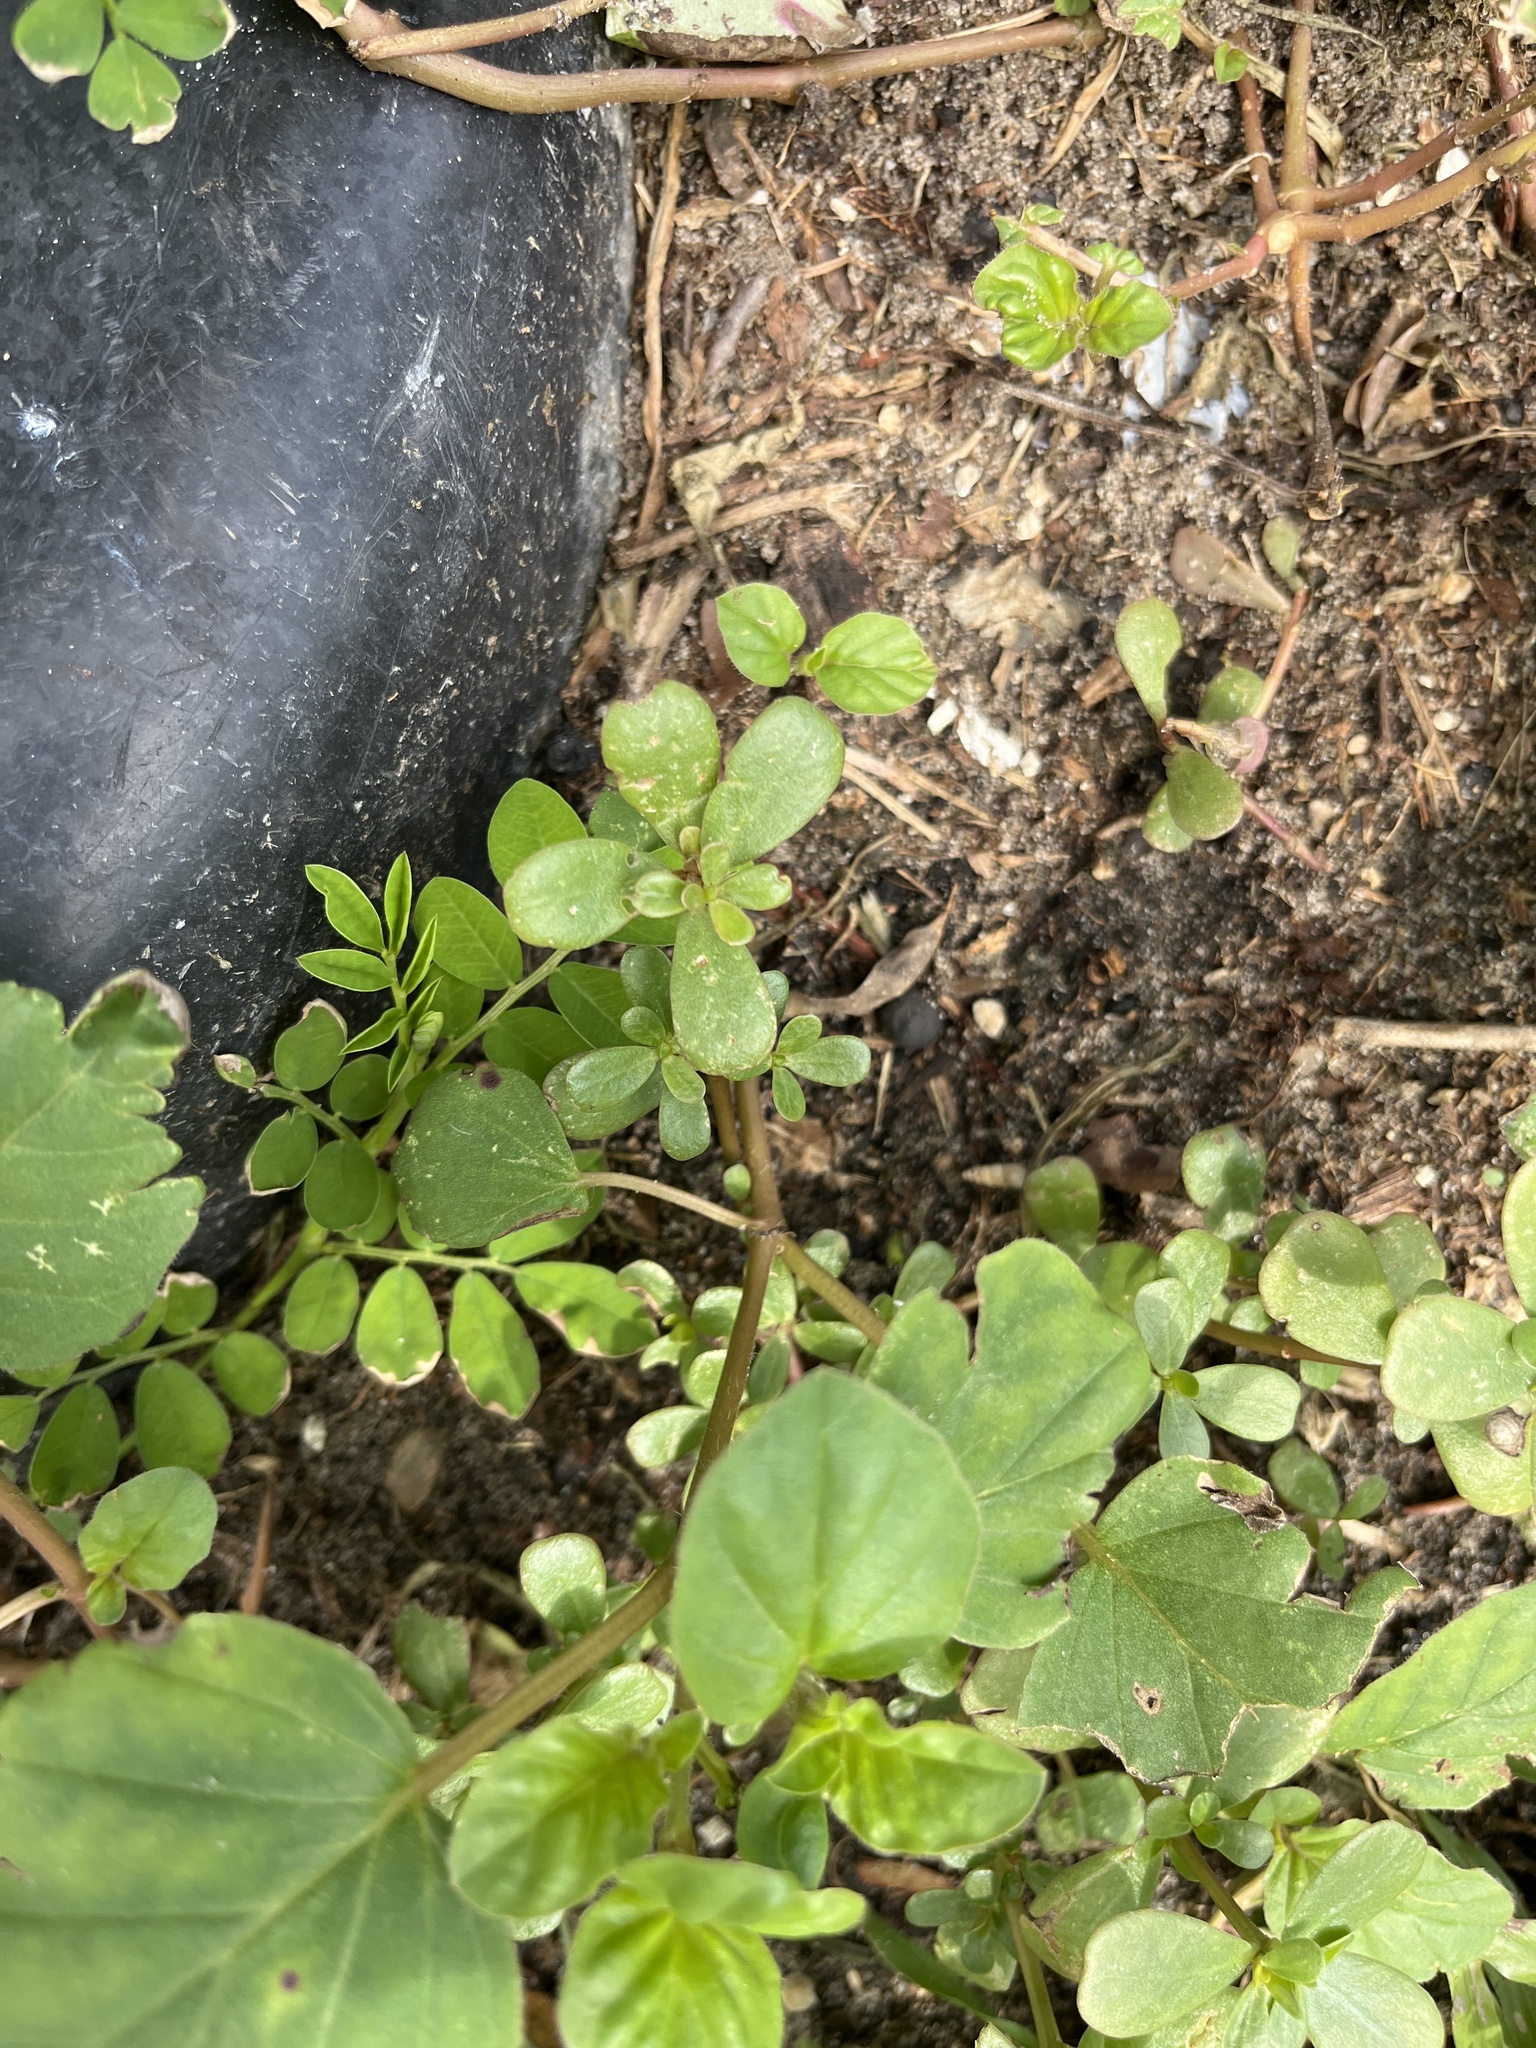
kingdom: Plantae
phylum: Tracheophyta
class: Magnoliopsida
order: Caryophyllales
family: Portulacaceae
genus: Portulaca
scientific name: Portulaca oleracea
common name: Common purslane
